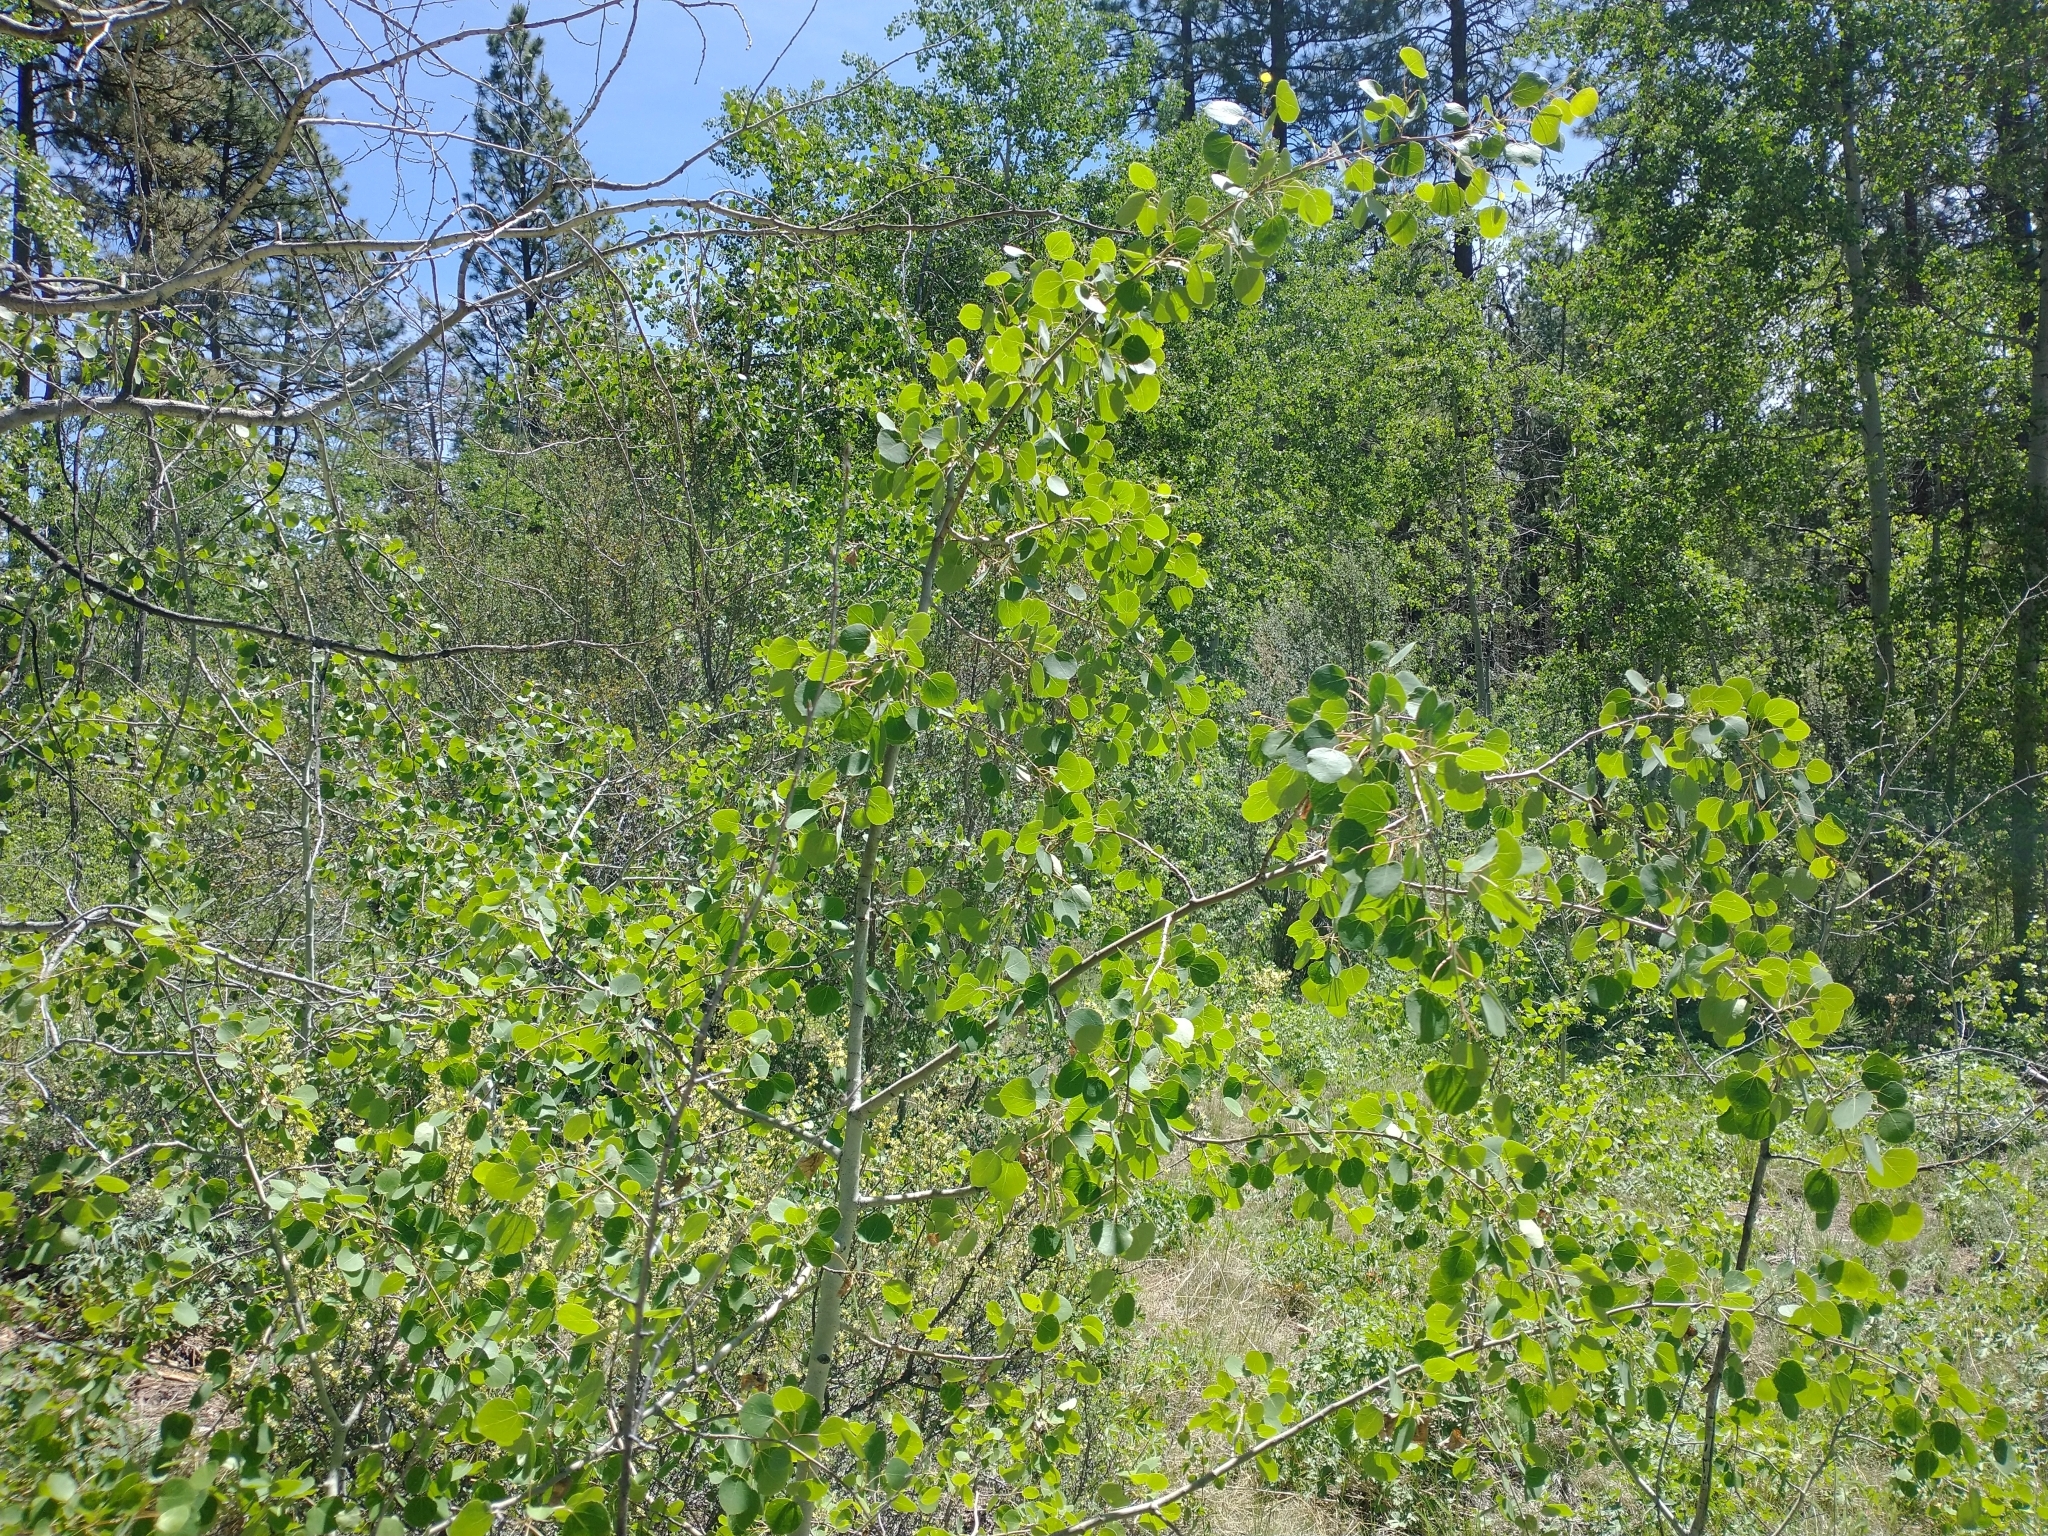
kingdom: Plantae
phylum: Tracheophyta
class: Magnoliopsida
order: Malpighiales
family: Salicaceae
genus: Populus
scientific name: Populus tremuloides
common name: Quaking aspen
